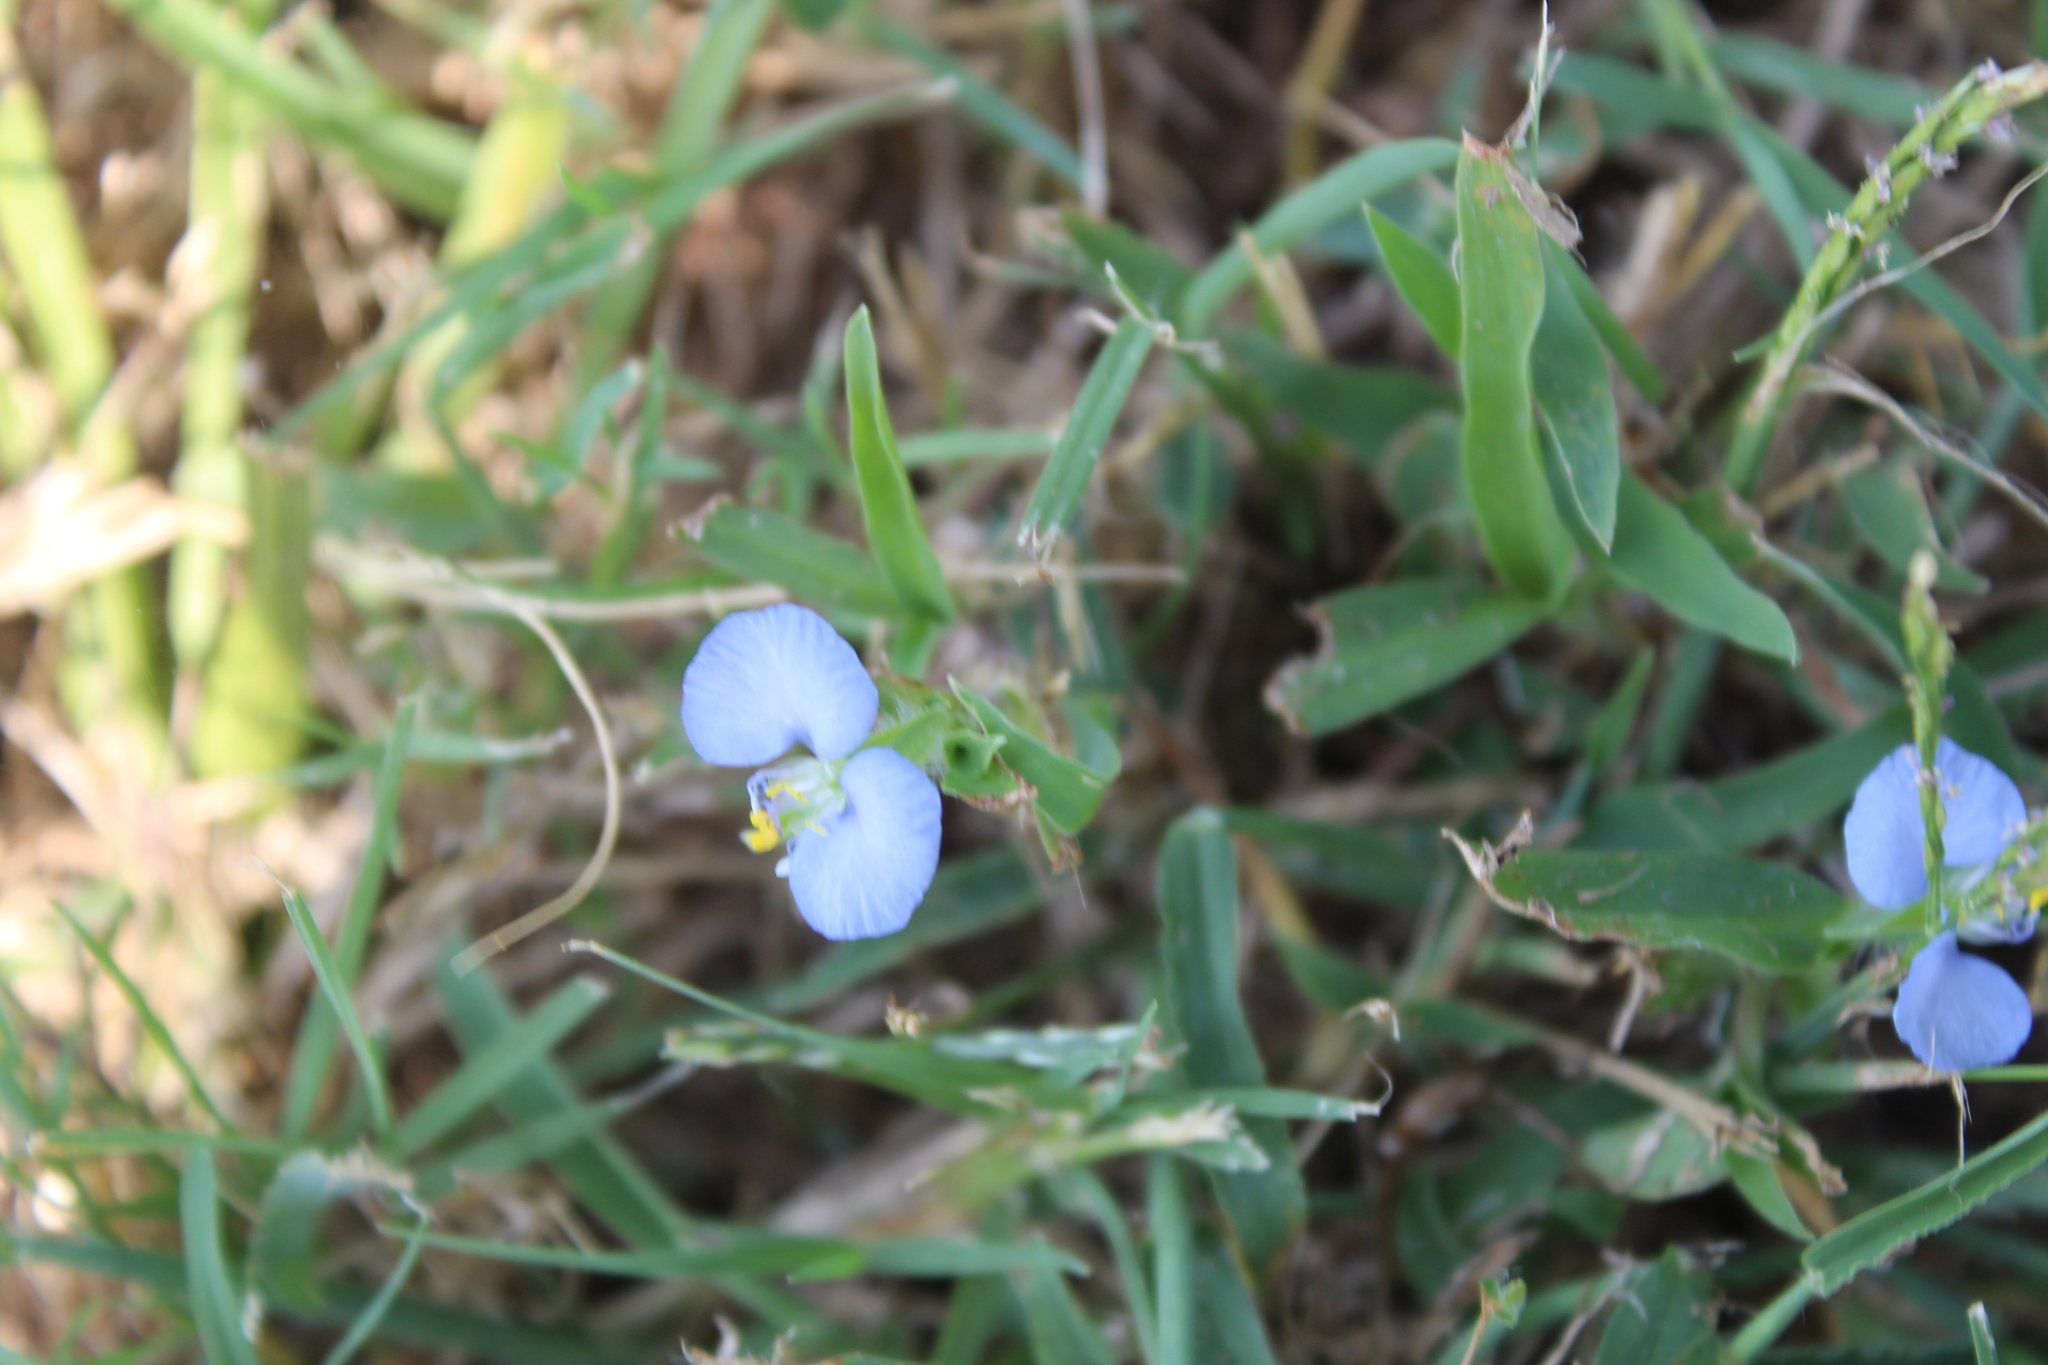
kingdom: Plantae
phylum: Tracheophyta
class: Liliopsida
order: Commelinales
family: Commelinaceae
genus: Commelina
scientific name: Commelina erecta
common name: Blousel blommetjie
